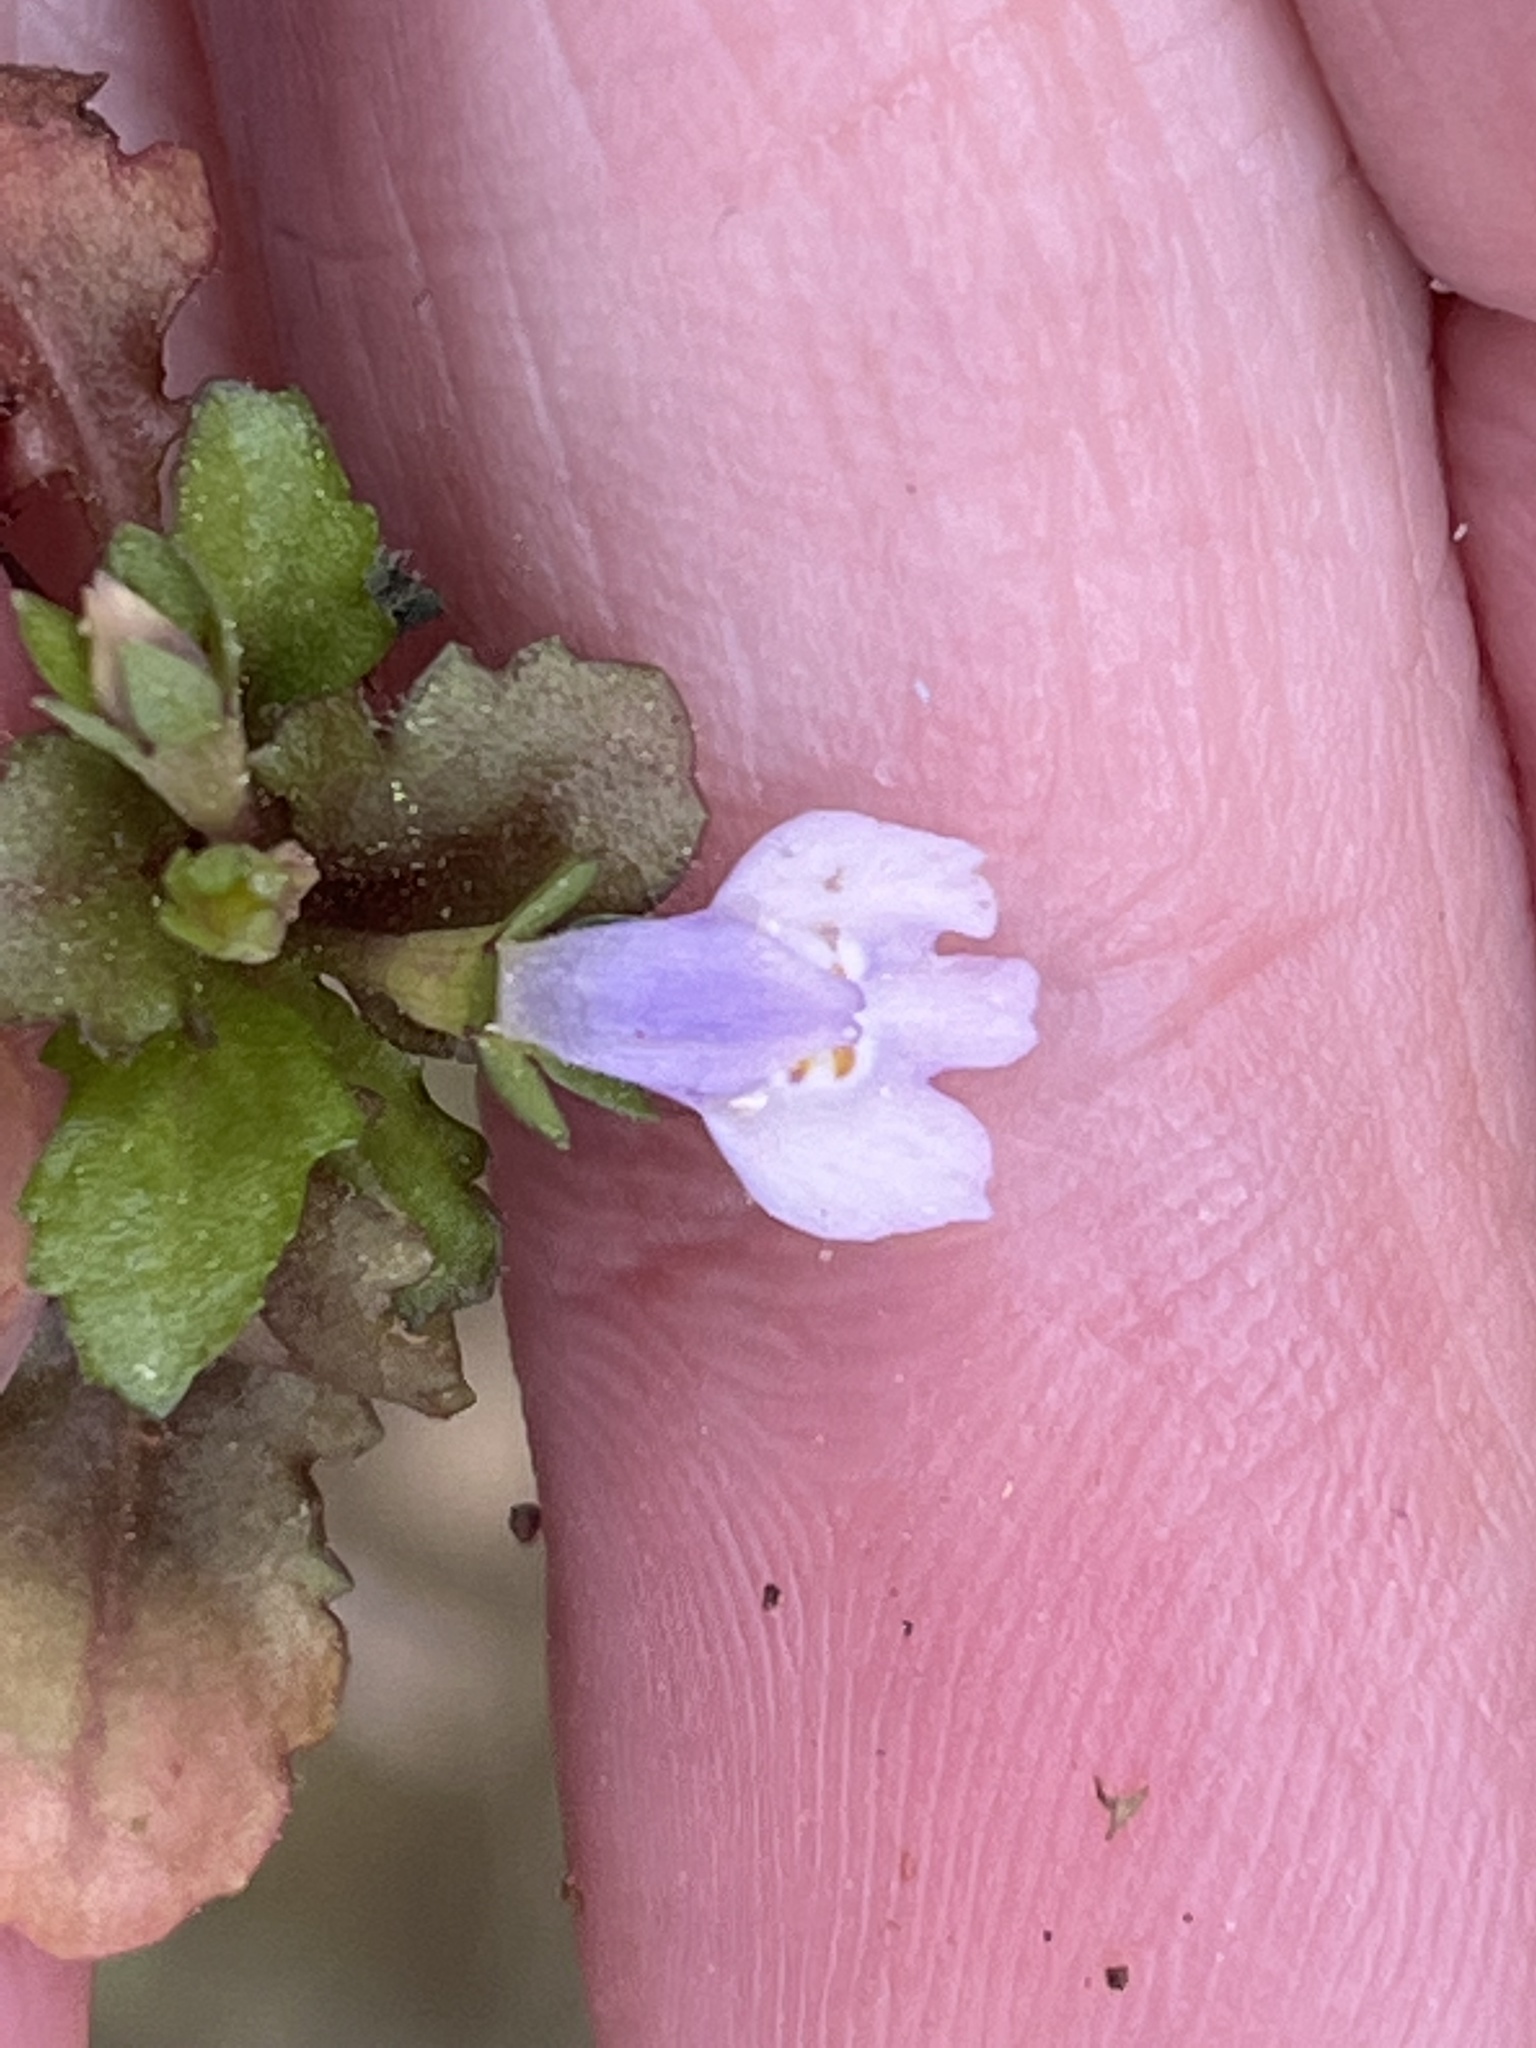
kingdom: Plantae
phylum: Tracheophyta
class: Magnoliopsida
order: Lamiales
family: Mazaceae
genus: Mazus
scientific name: Mazus pumilus
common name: Japanese mazus
